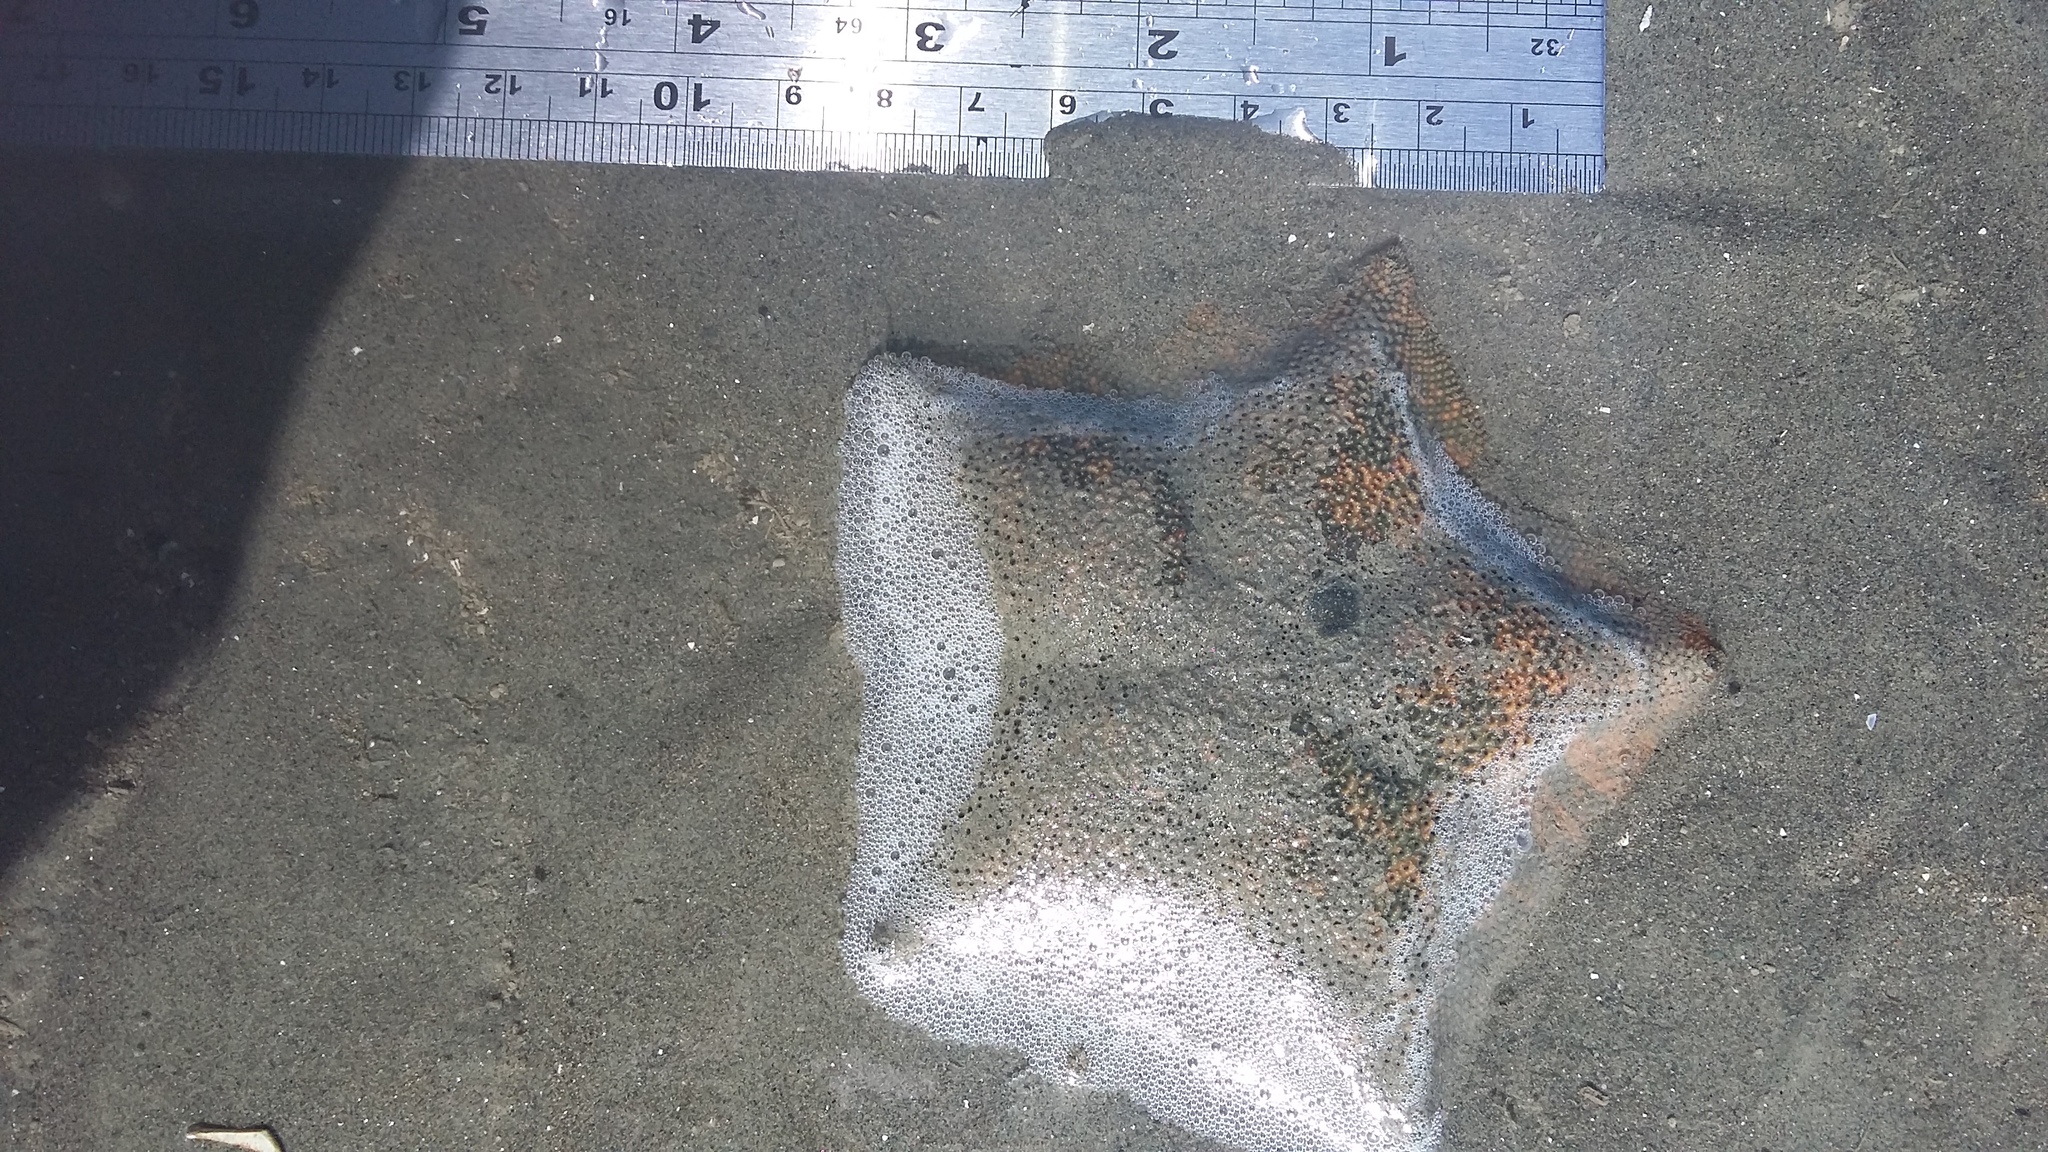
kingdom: Animalia
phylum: Echinodermata
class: Asteroidea
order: Valvatida
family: Asterinidae
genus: Patiriella
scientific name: Patiriella regularis
